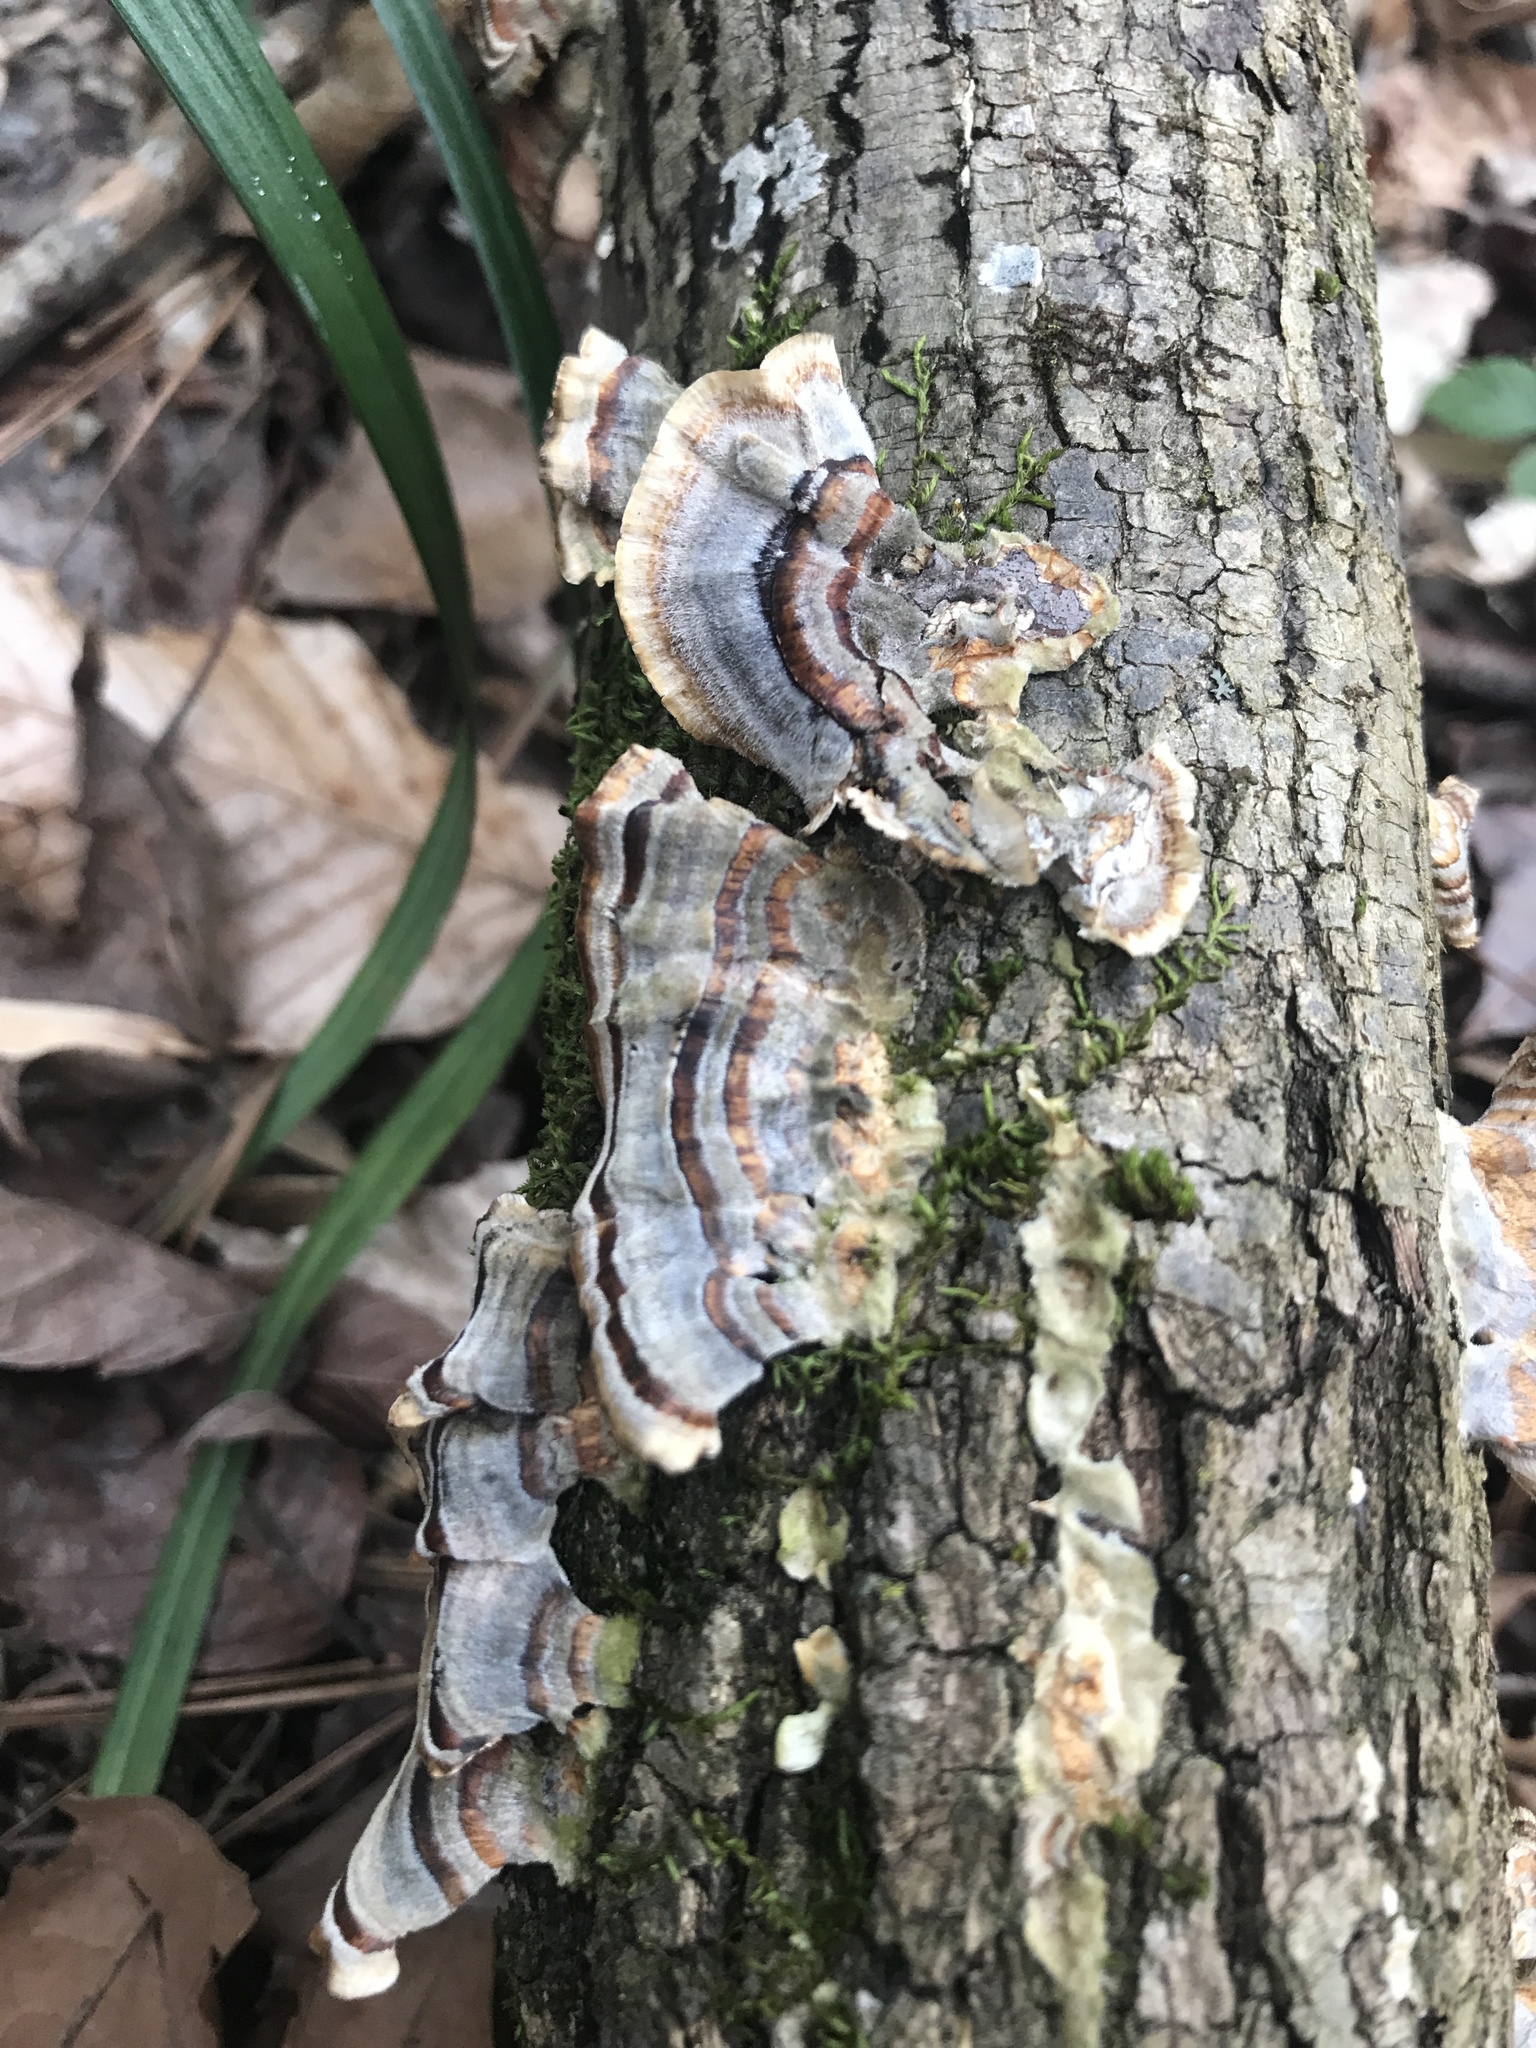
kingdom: Fungi
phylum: Basidiomycota
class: Agaricomycetes
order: Polyporales
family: Polyporaceae
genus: Trametes
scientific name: Trametes versicolor
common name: Turkeytail
